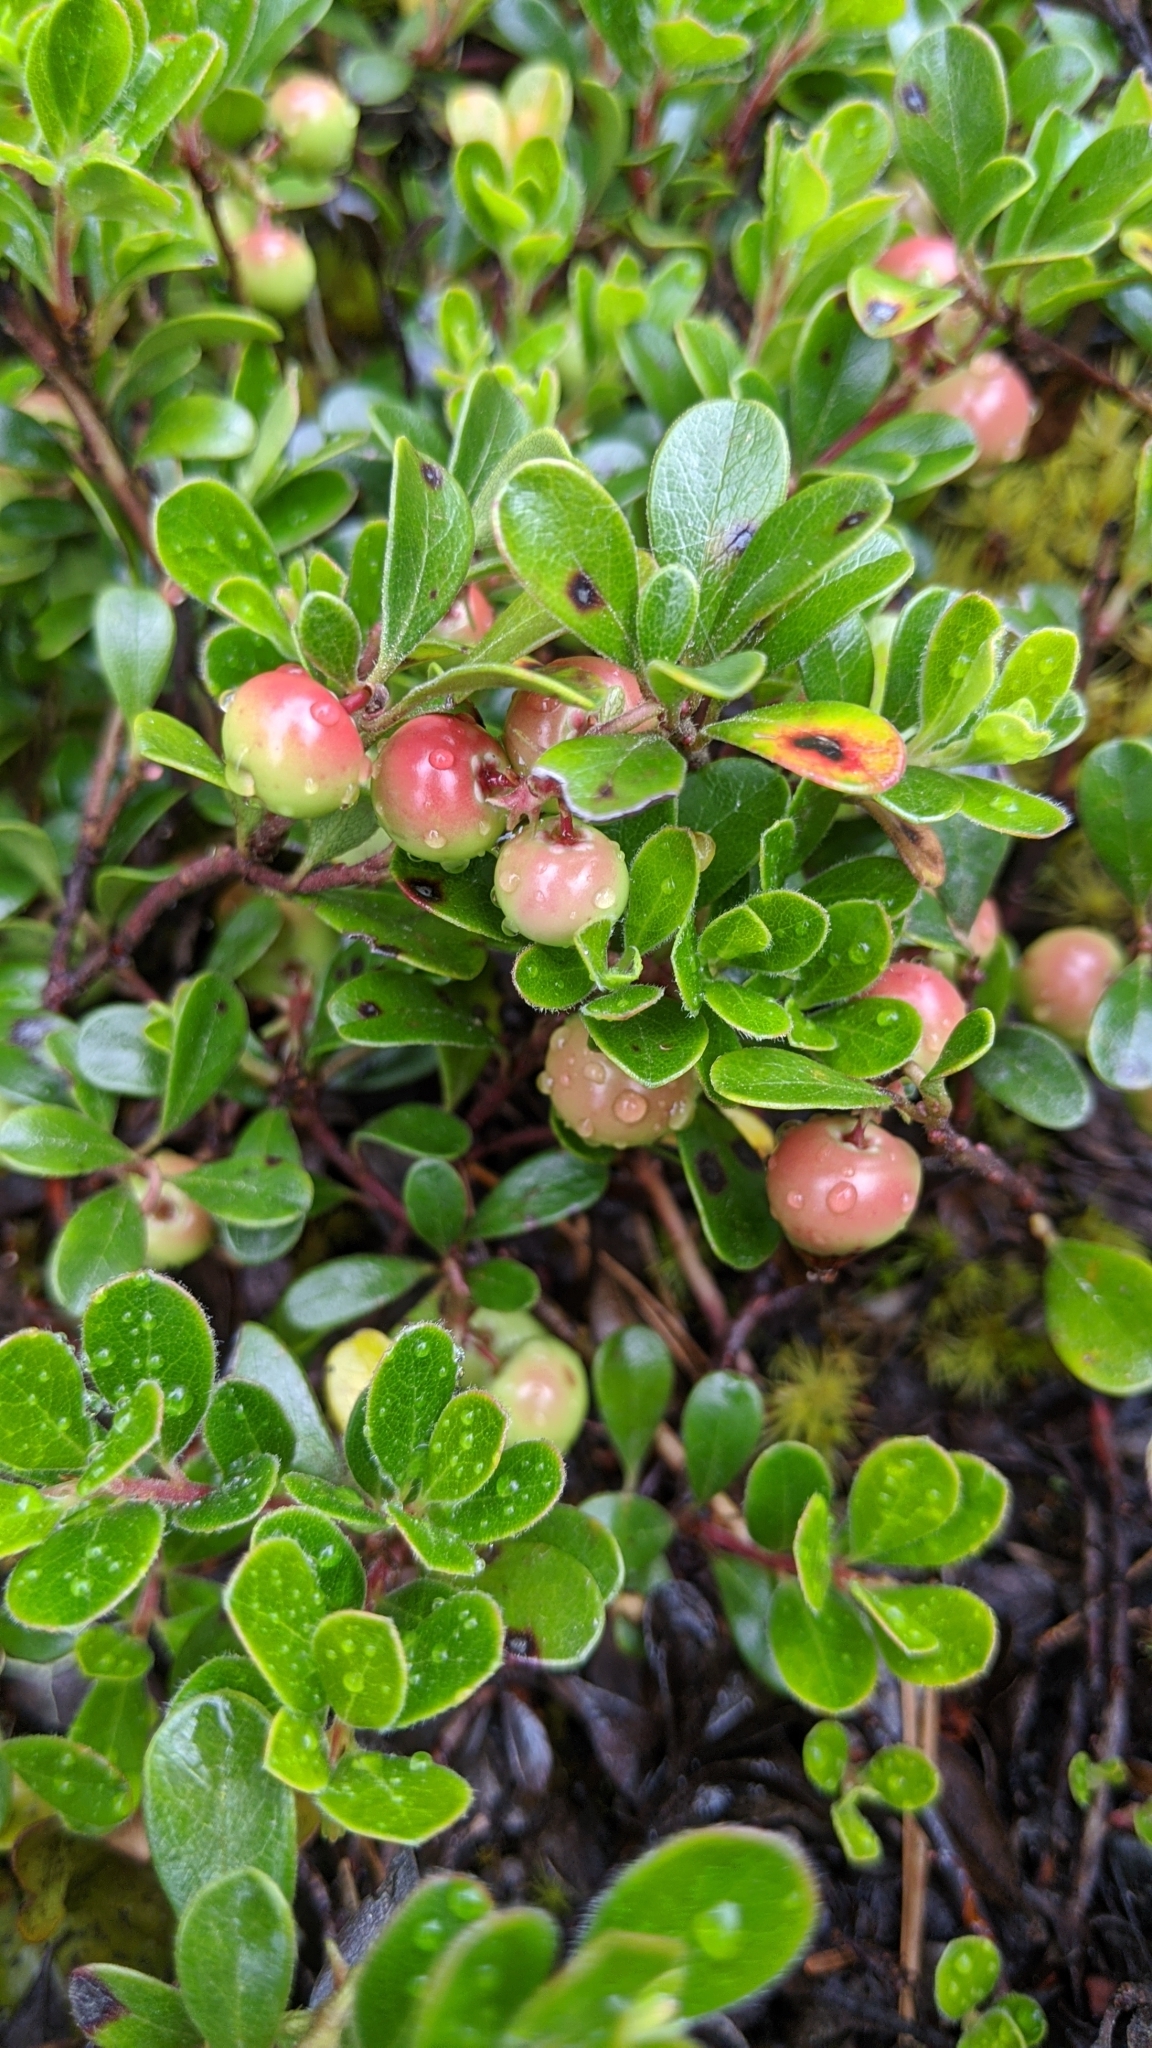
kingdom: Plantae
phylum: Tracheophyta
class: Magnoliopsida
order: Ericales
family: Ericaceae
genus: Arctostaphylos
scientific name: Arctostaphylos uva-ursi
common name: Bearberry
